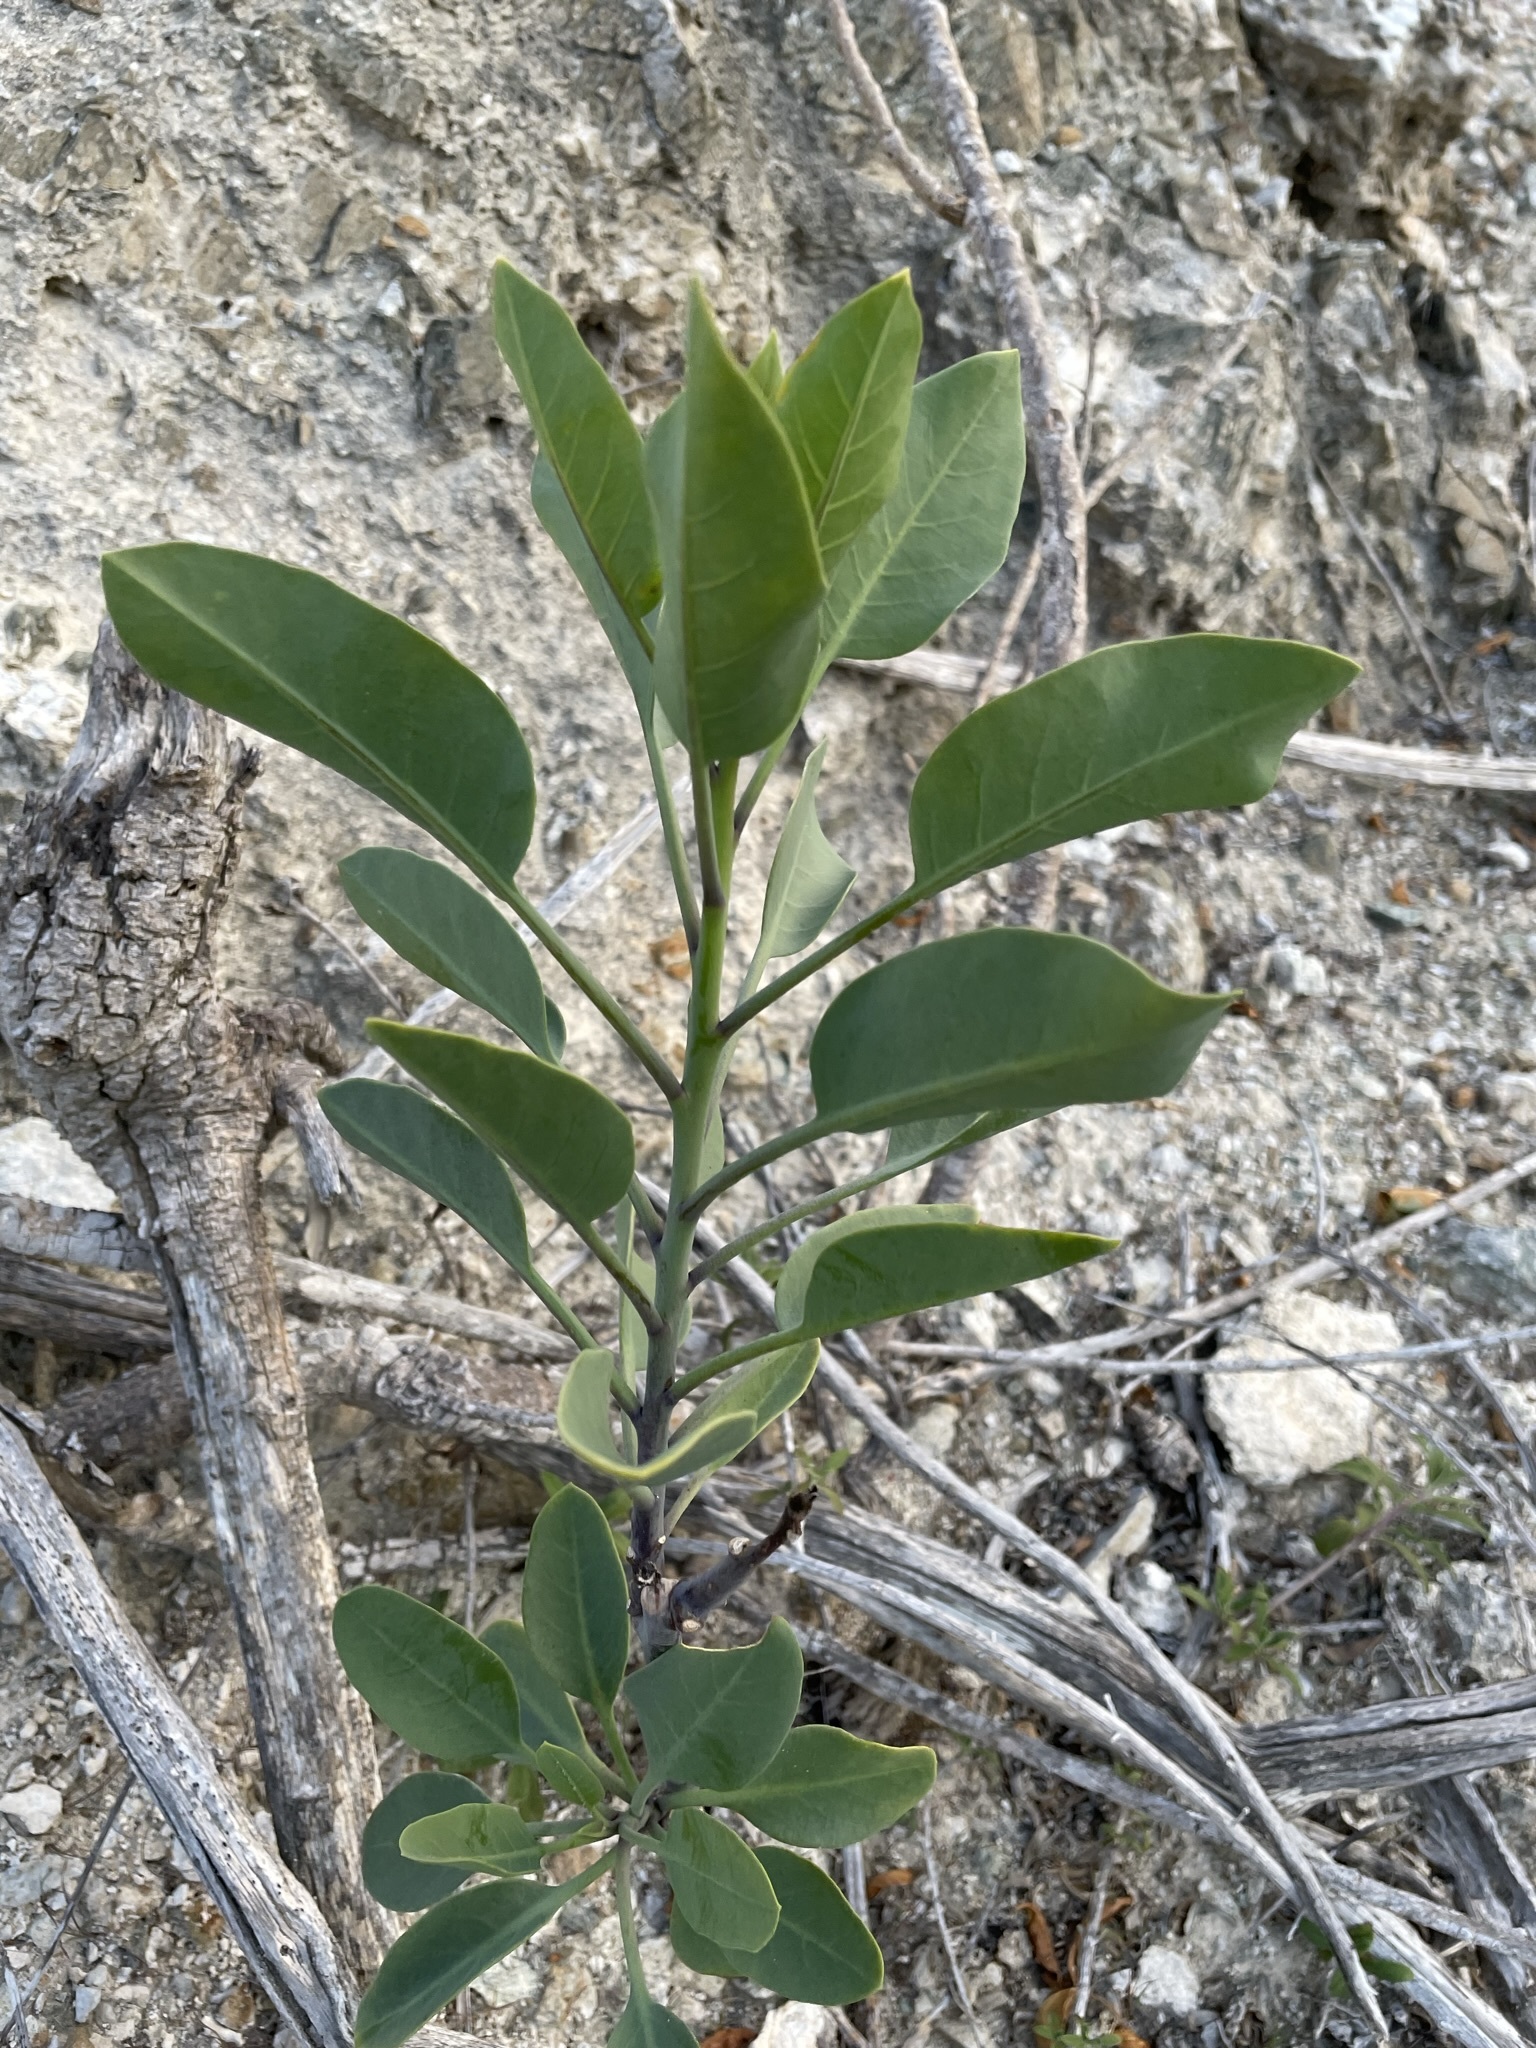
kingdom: Plantae
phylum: Tracheophyta
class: Magnoliopsida
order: Solanales
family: Solanaceae
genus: Nicotiana
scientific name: Nicotiana glauca
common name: Tree tobacco
